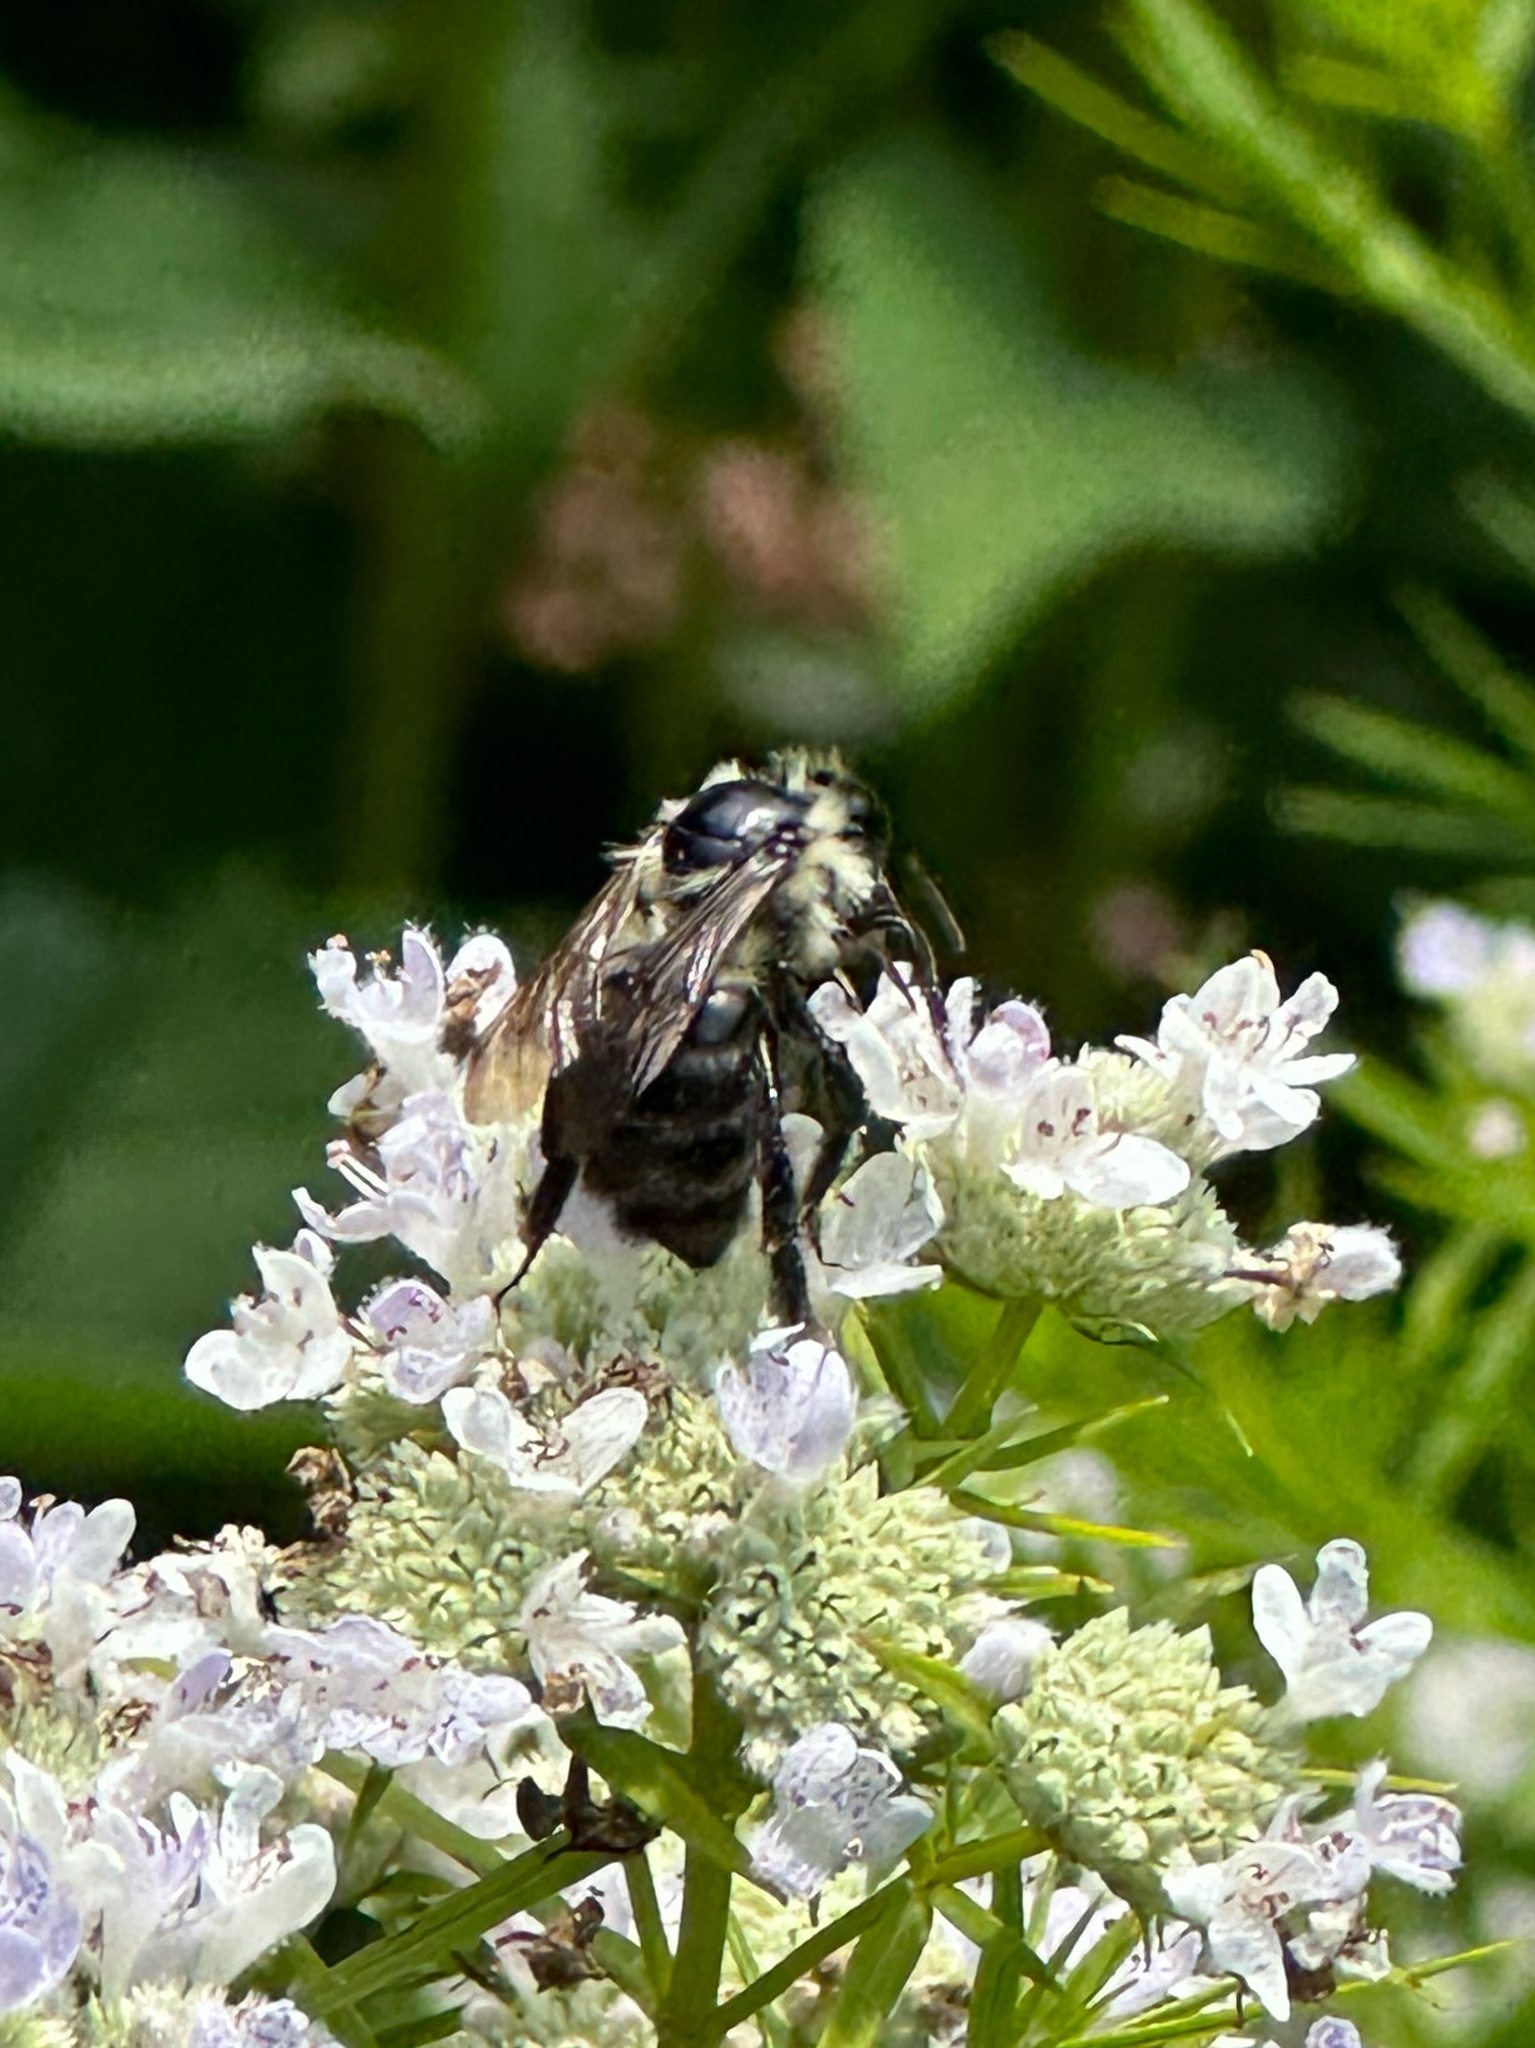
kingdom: Animalia
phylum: Arthropoda
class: Insecta
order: Hymenoptera
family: Apidae
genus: Bombus
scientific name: Bombus impatiens
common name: Common eastern bumble bee
